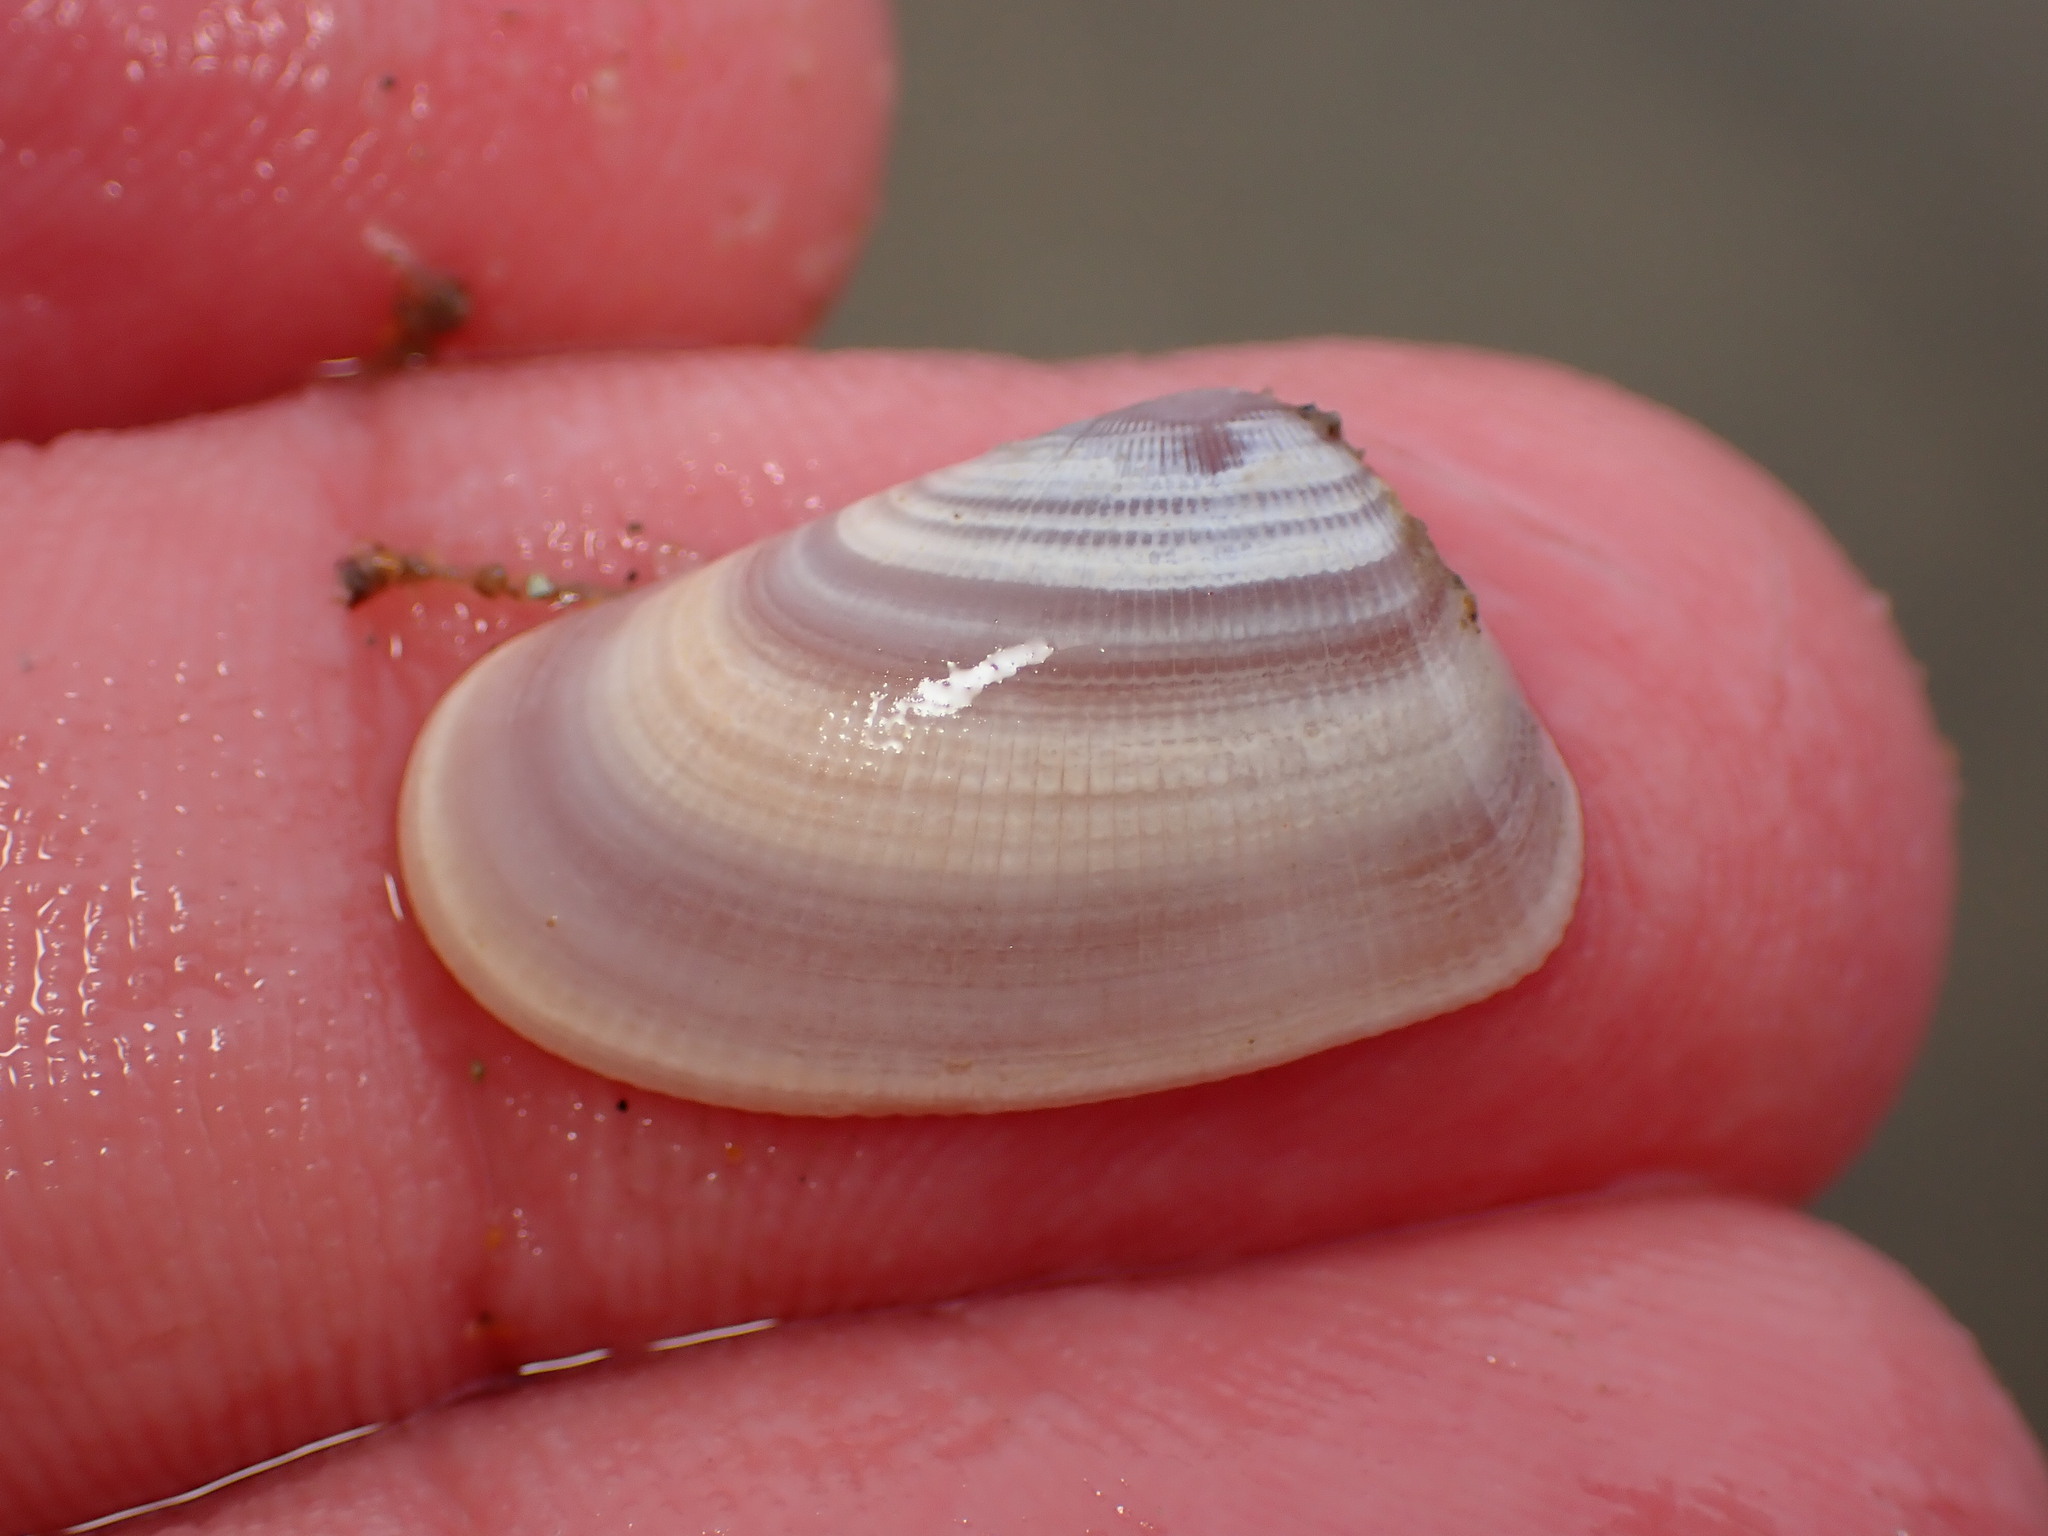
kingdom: Animalia
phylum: Mollusca
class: Bivalvia
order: Cardiida
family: Donacidae
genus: Donax
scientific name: Donax gouldii
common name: Gould beanclam
